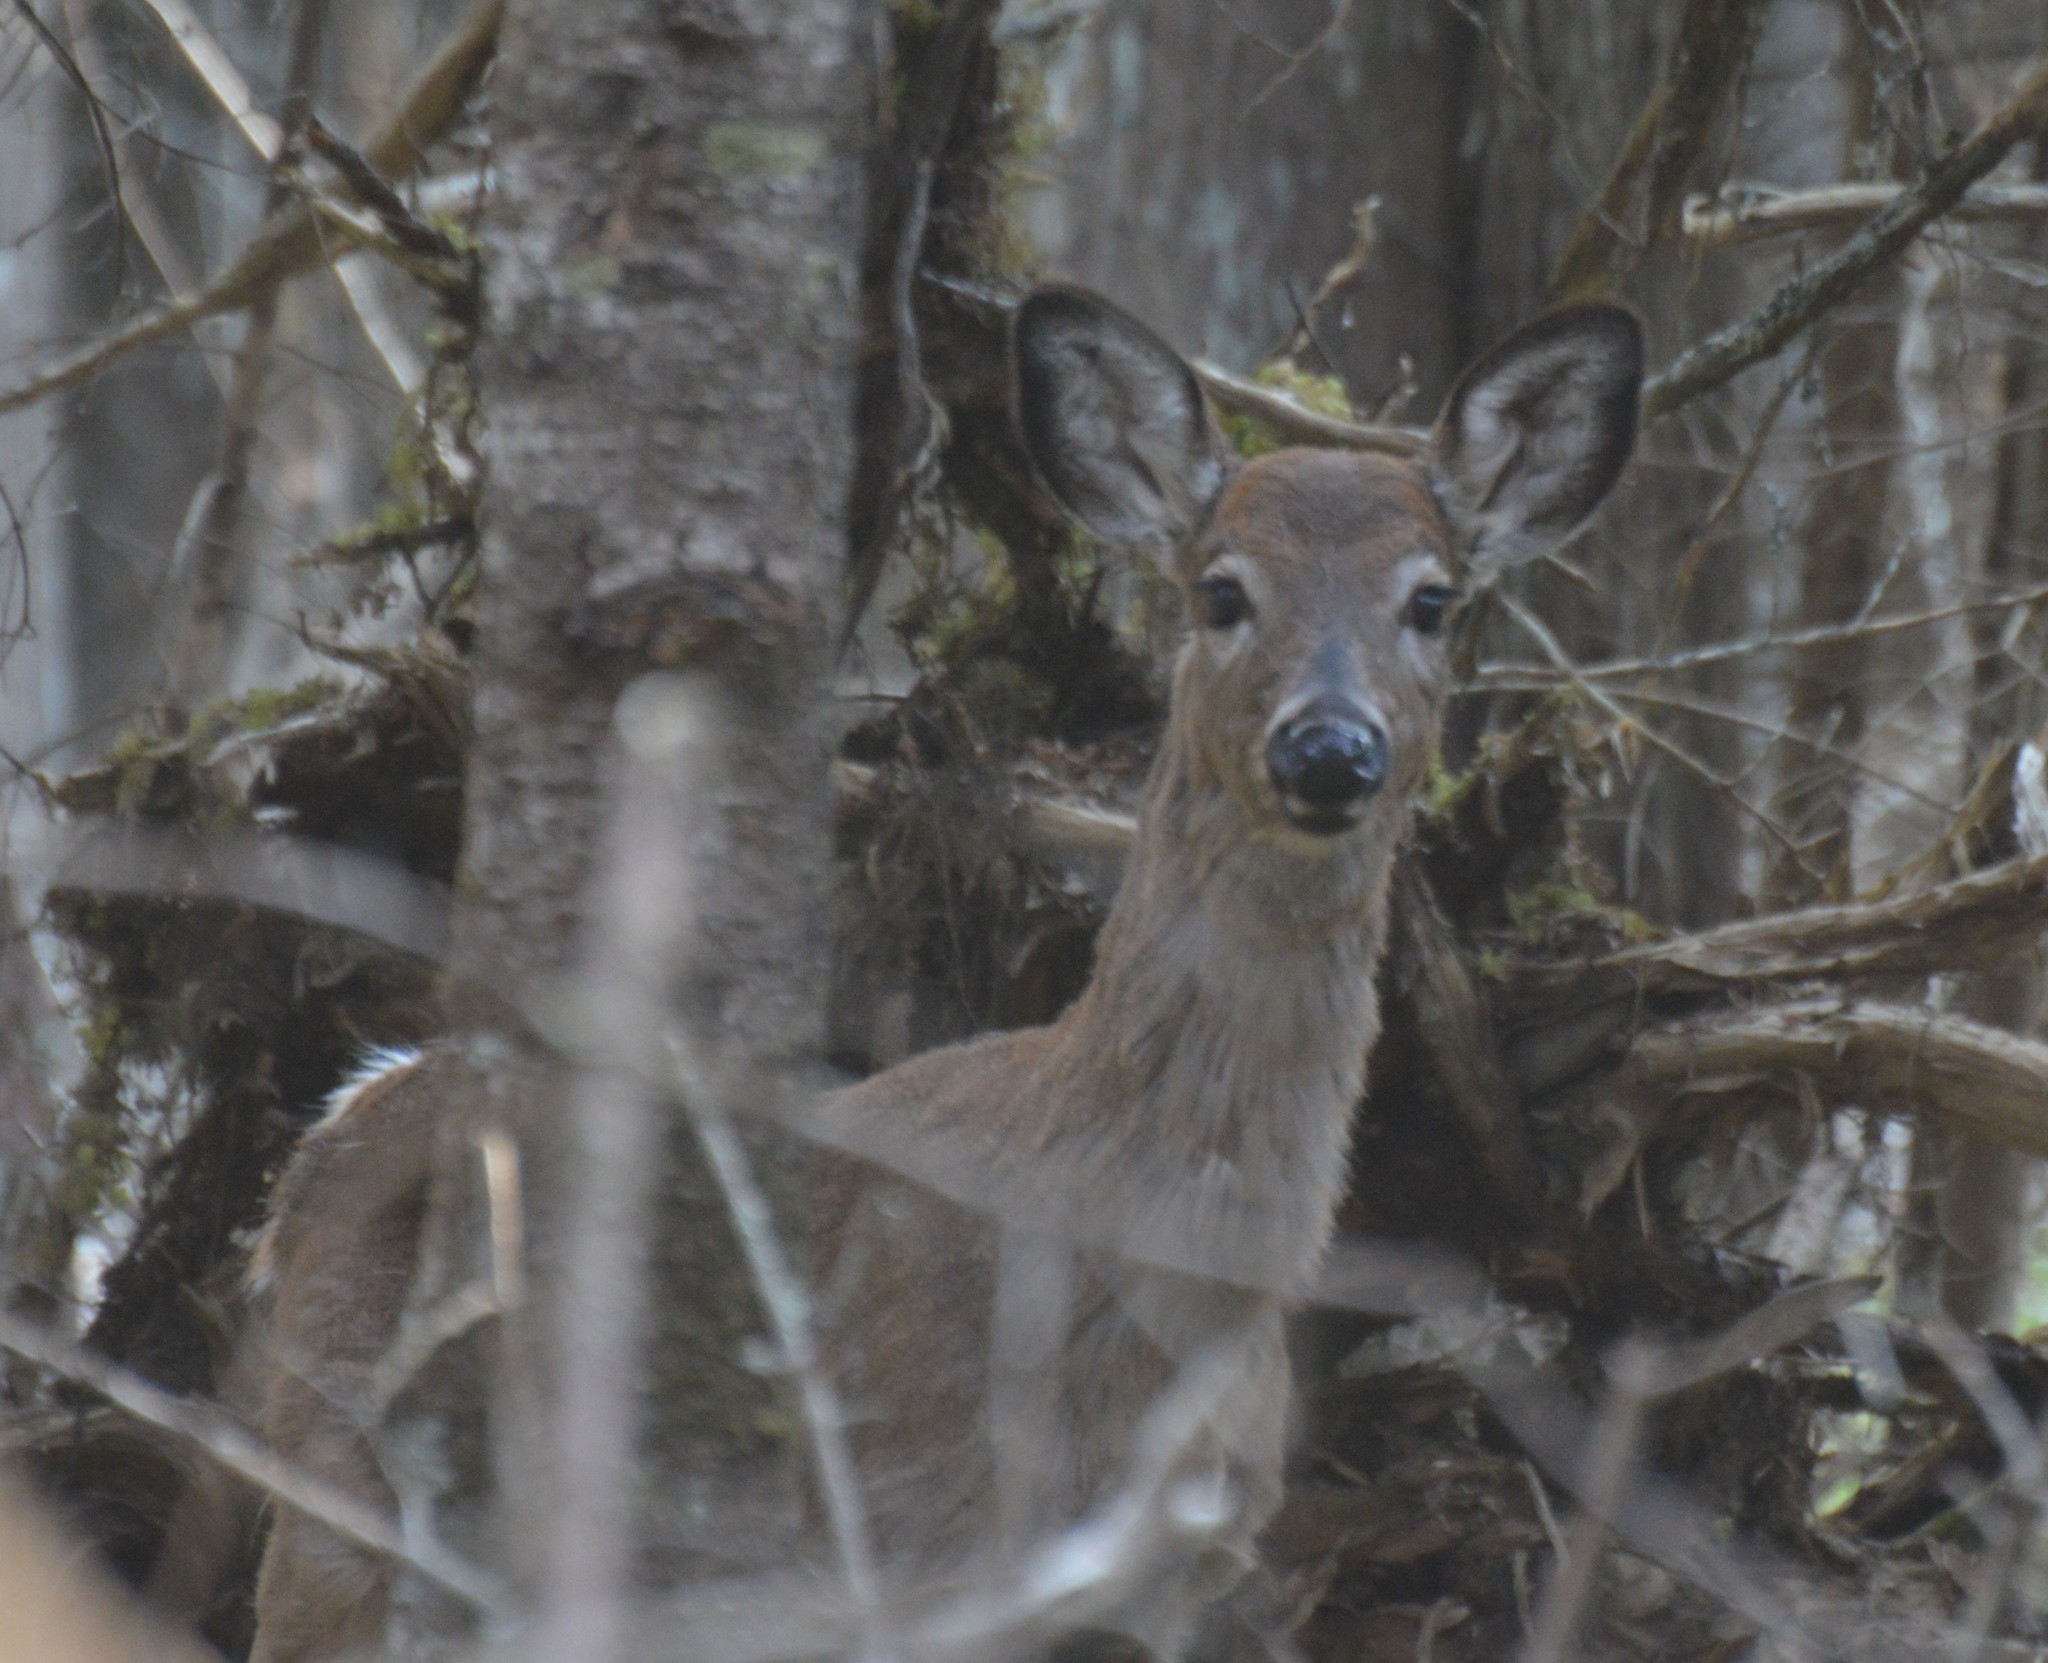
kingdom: Animalia
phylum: Chordata
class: Mammalia
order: Artiodactyla
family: Cervidae
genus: Odocoileus
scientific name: Odocoileus virginianus
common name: White-tailed deer
